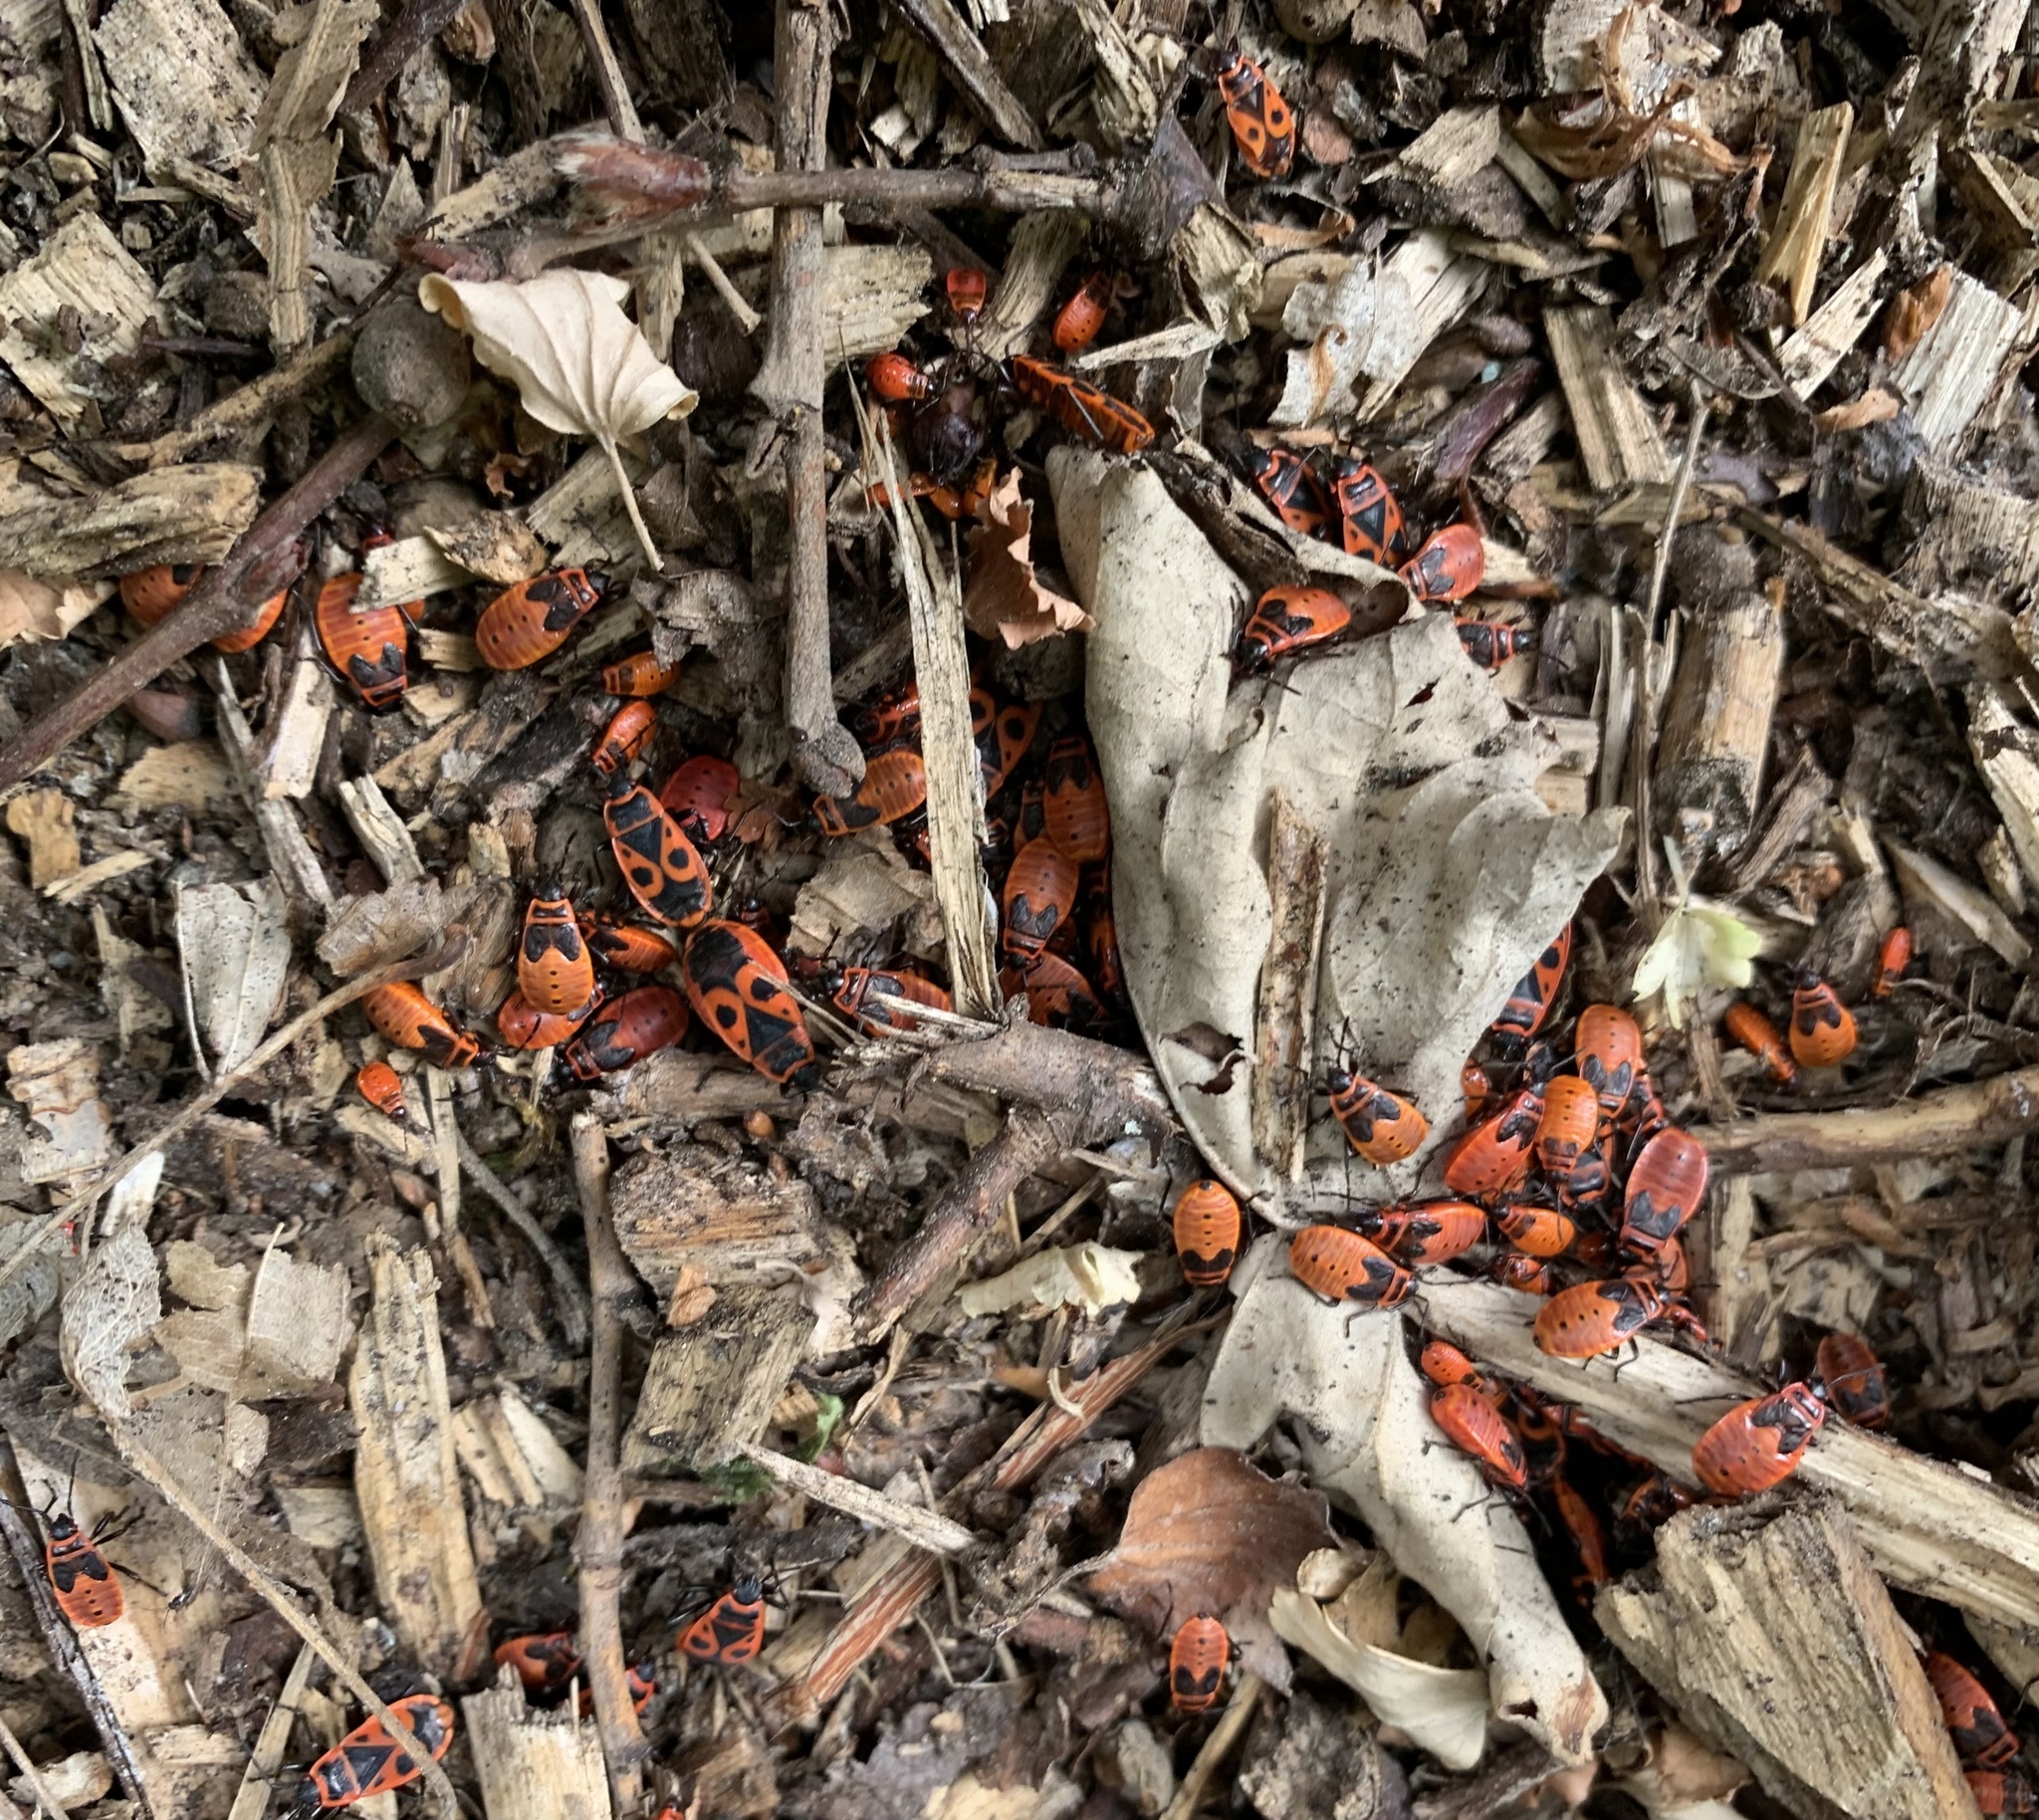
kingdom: Animalia
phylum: Arthropoda
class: Insecta
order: Hemiptera
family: Pyrrhocoridae
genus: Pyrrhocoris
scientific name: Pyrrhocoris apterus
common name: Firebug
